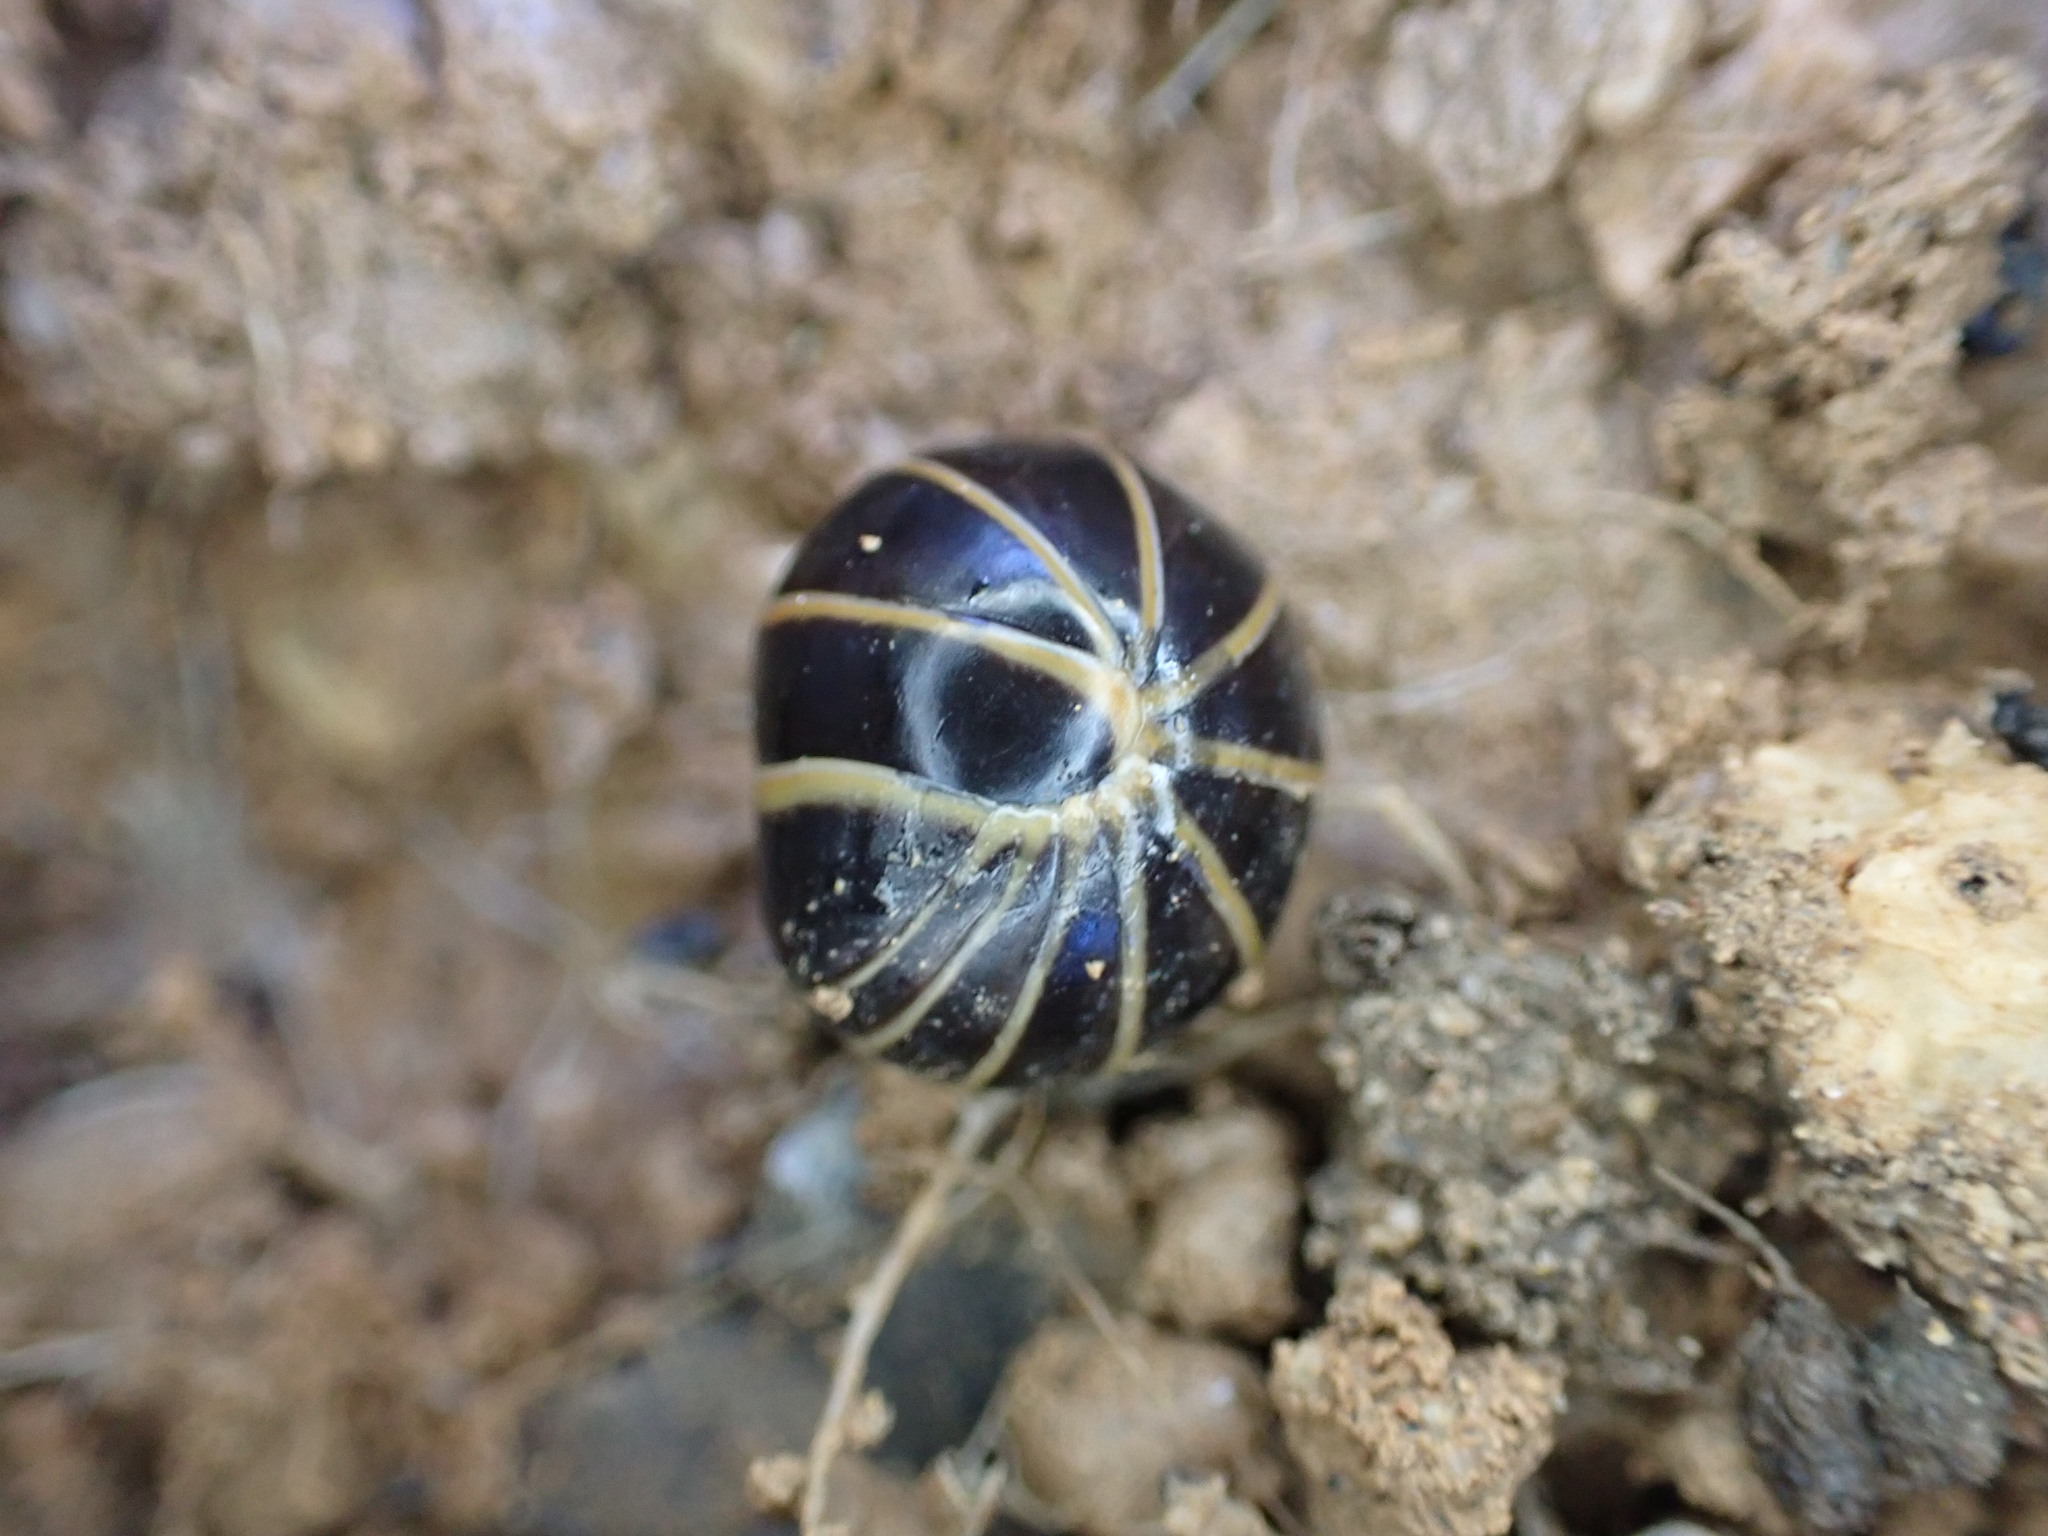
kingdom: Animalia
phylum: Arthropoda
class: Diplopoda
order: Glomerida
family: Glomeridae
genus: Glomeris
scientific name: Glomeris marginata
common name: Bordered pill millipede
